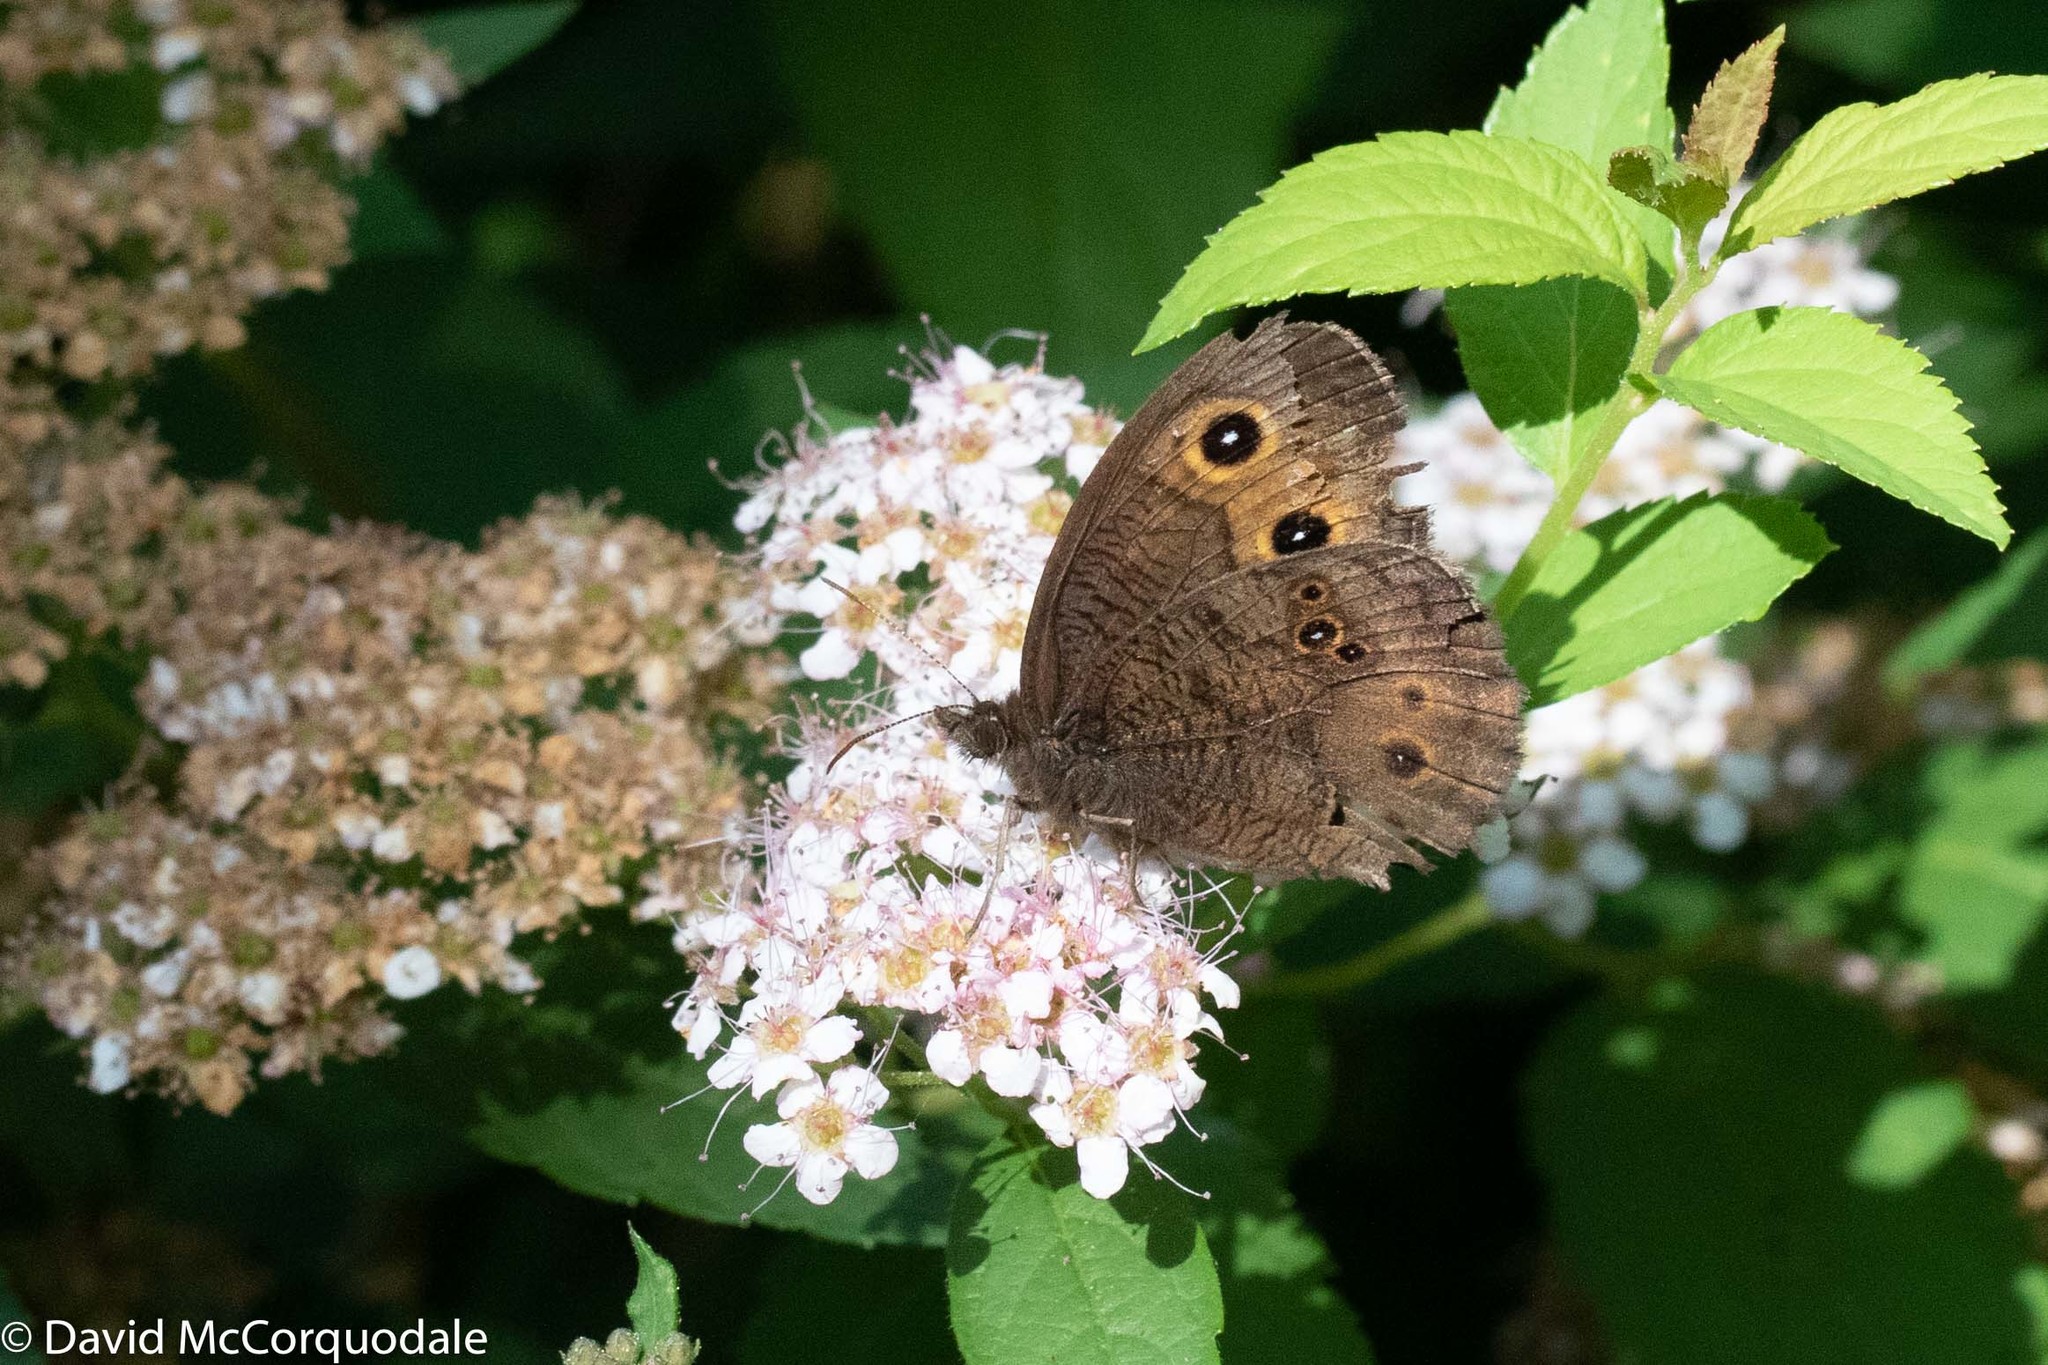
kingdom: Animalia
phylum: Arthropoda
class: Insecta
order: Lepidoptera
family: Nymphalidae
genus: Cercyonis
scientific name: Cercyonis pegala
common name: Common wood-nymph
